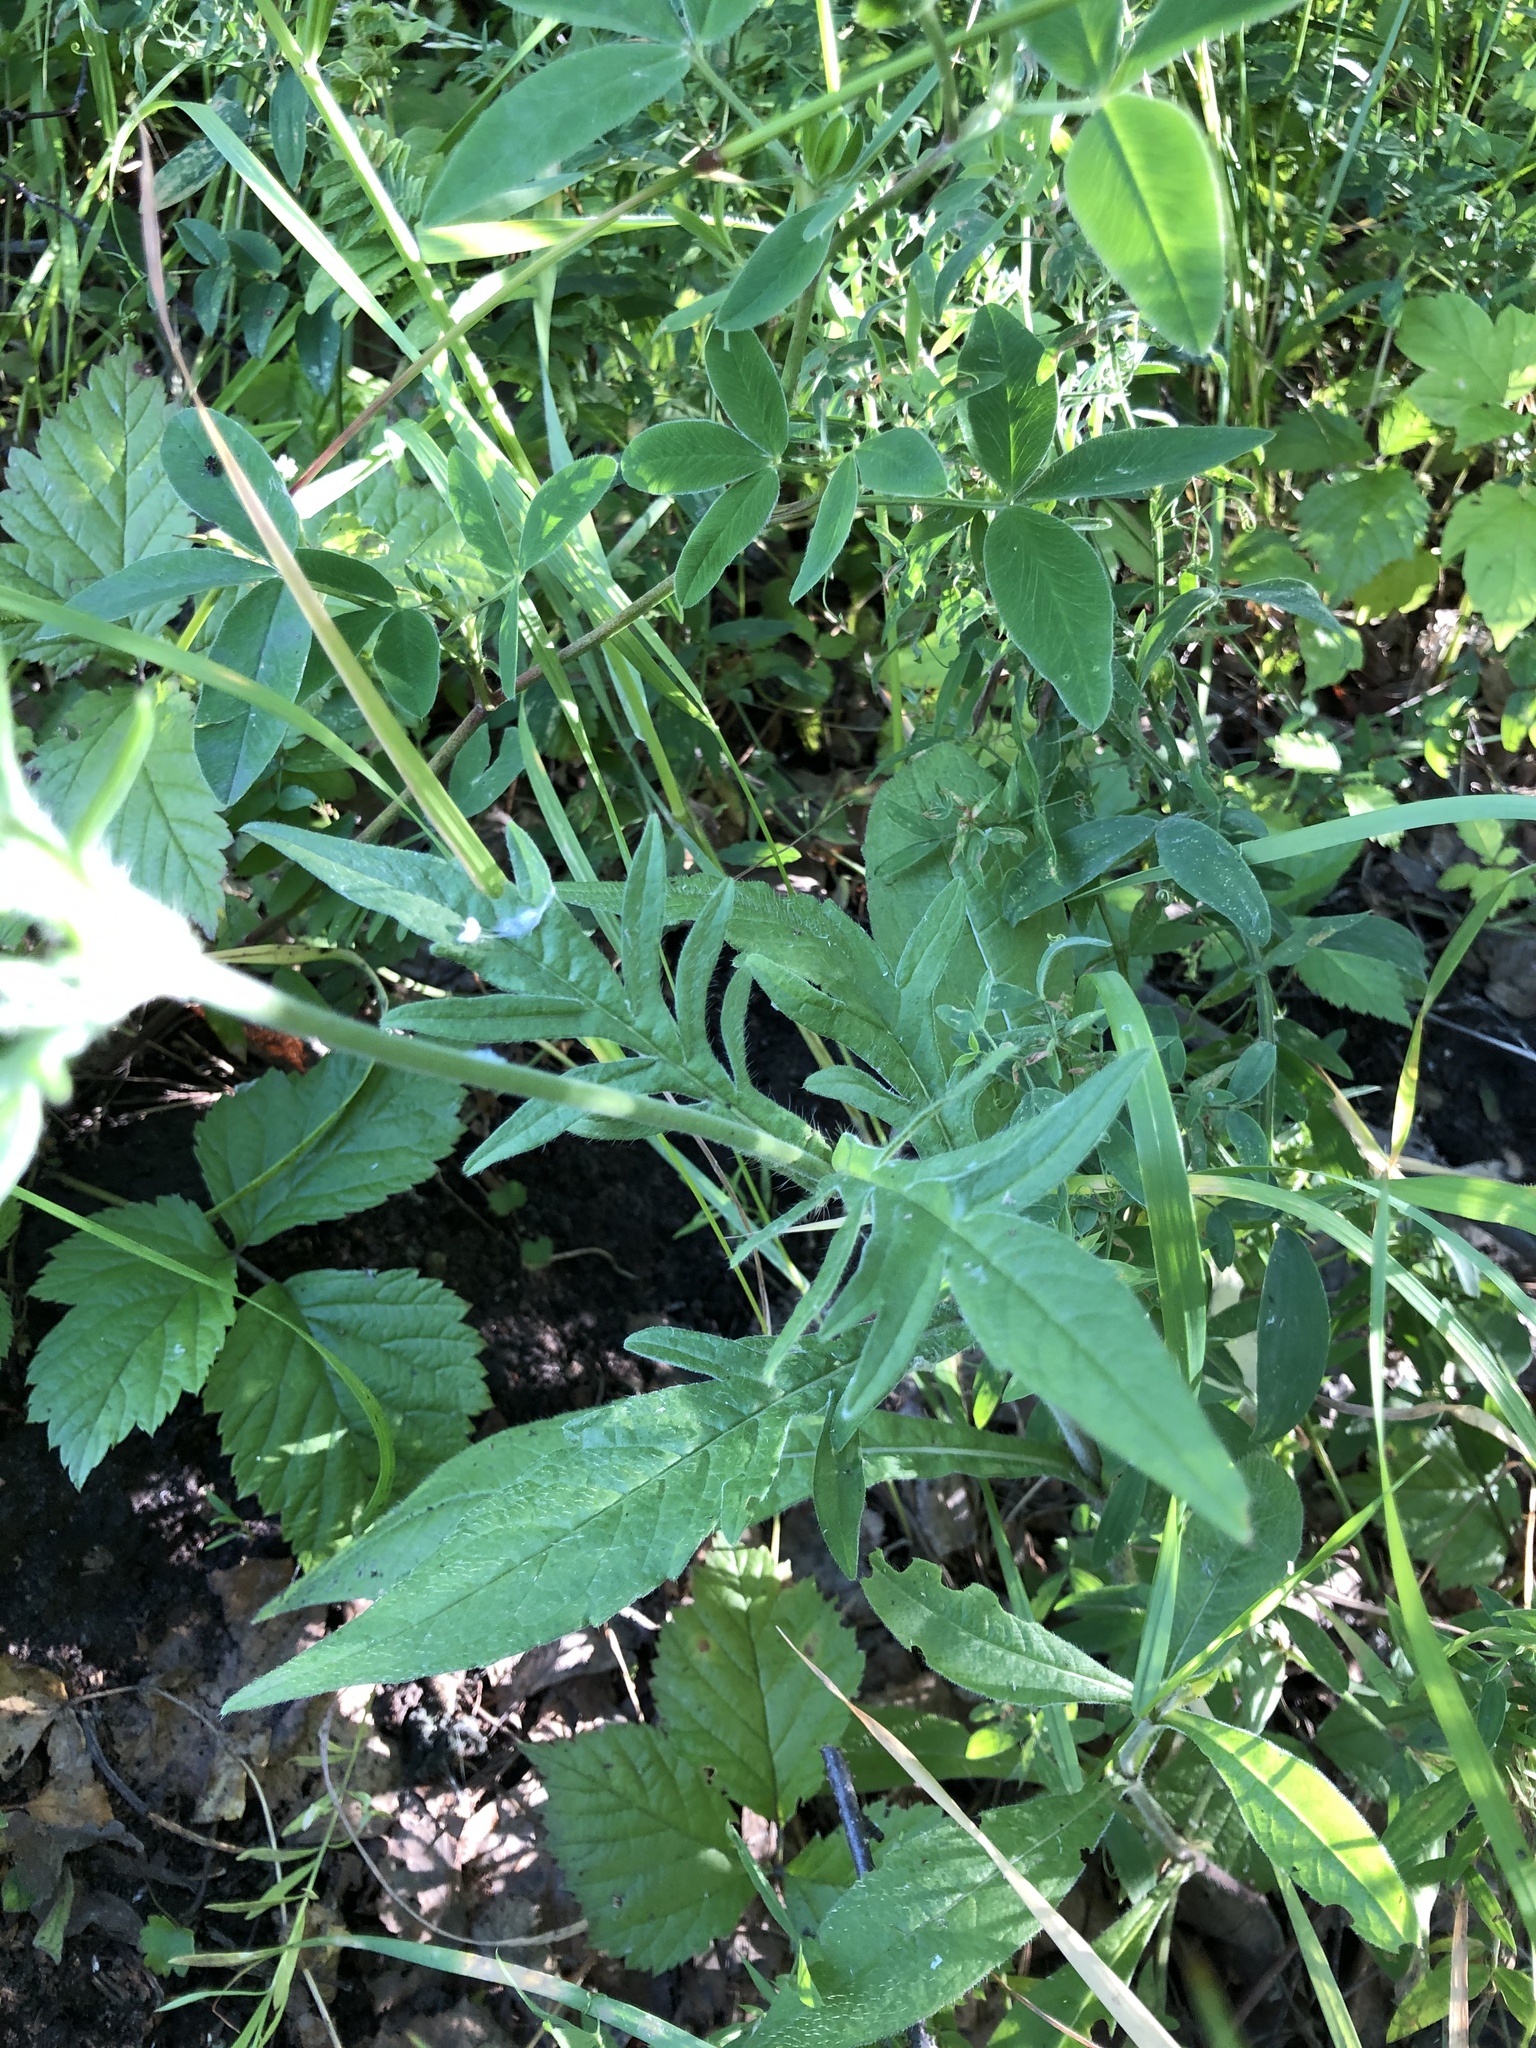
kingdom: Plantae
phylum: Tracheophyta
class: Magnoliopsida
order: Dipsacales
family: Caprifoliaceae
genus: Knautia
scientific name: Knautia arvensis
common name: Field scabiosa
